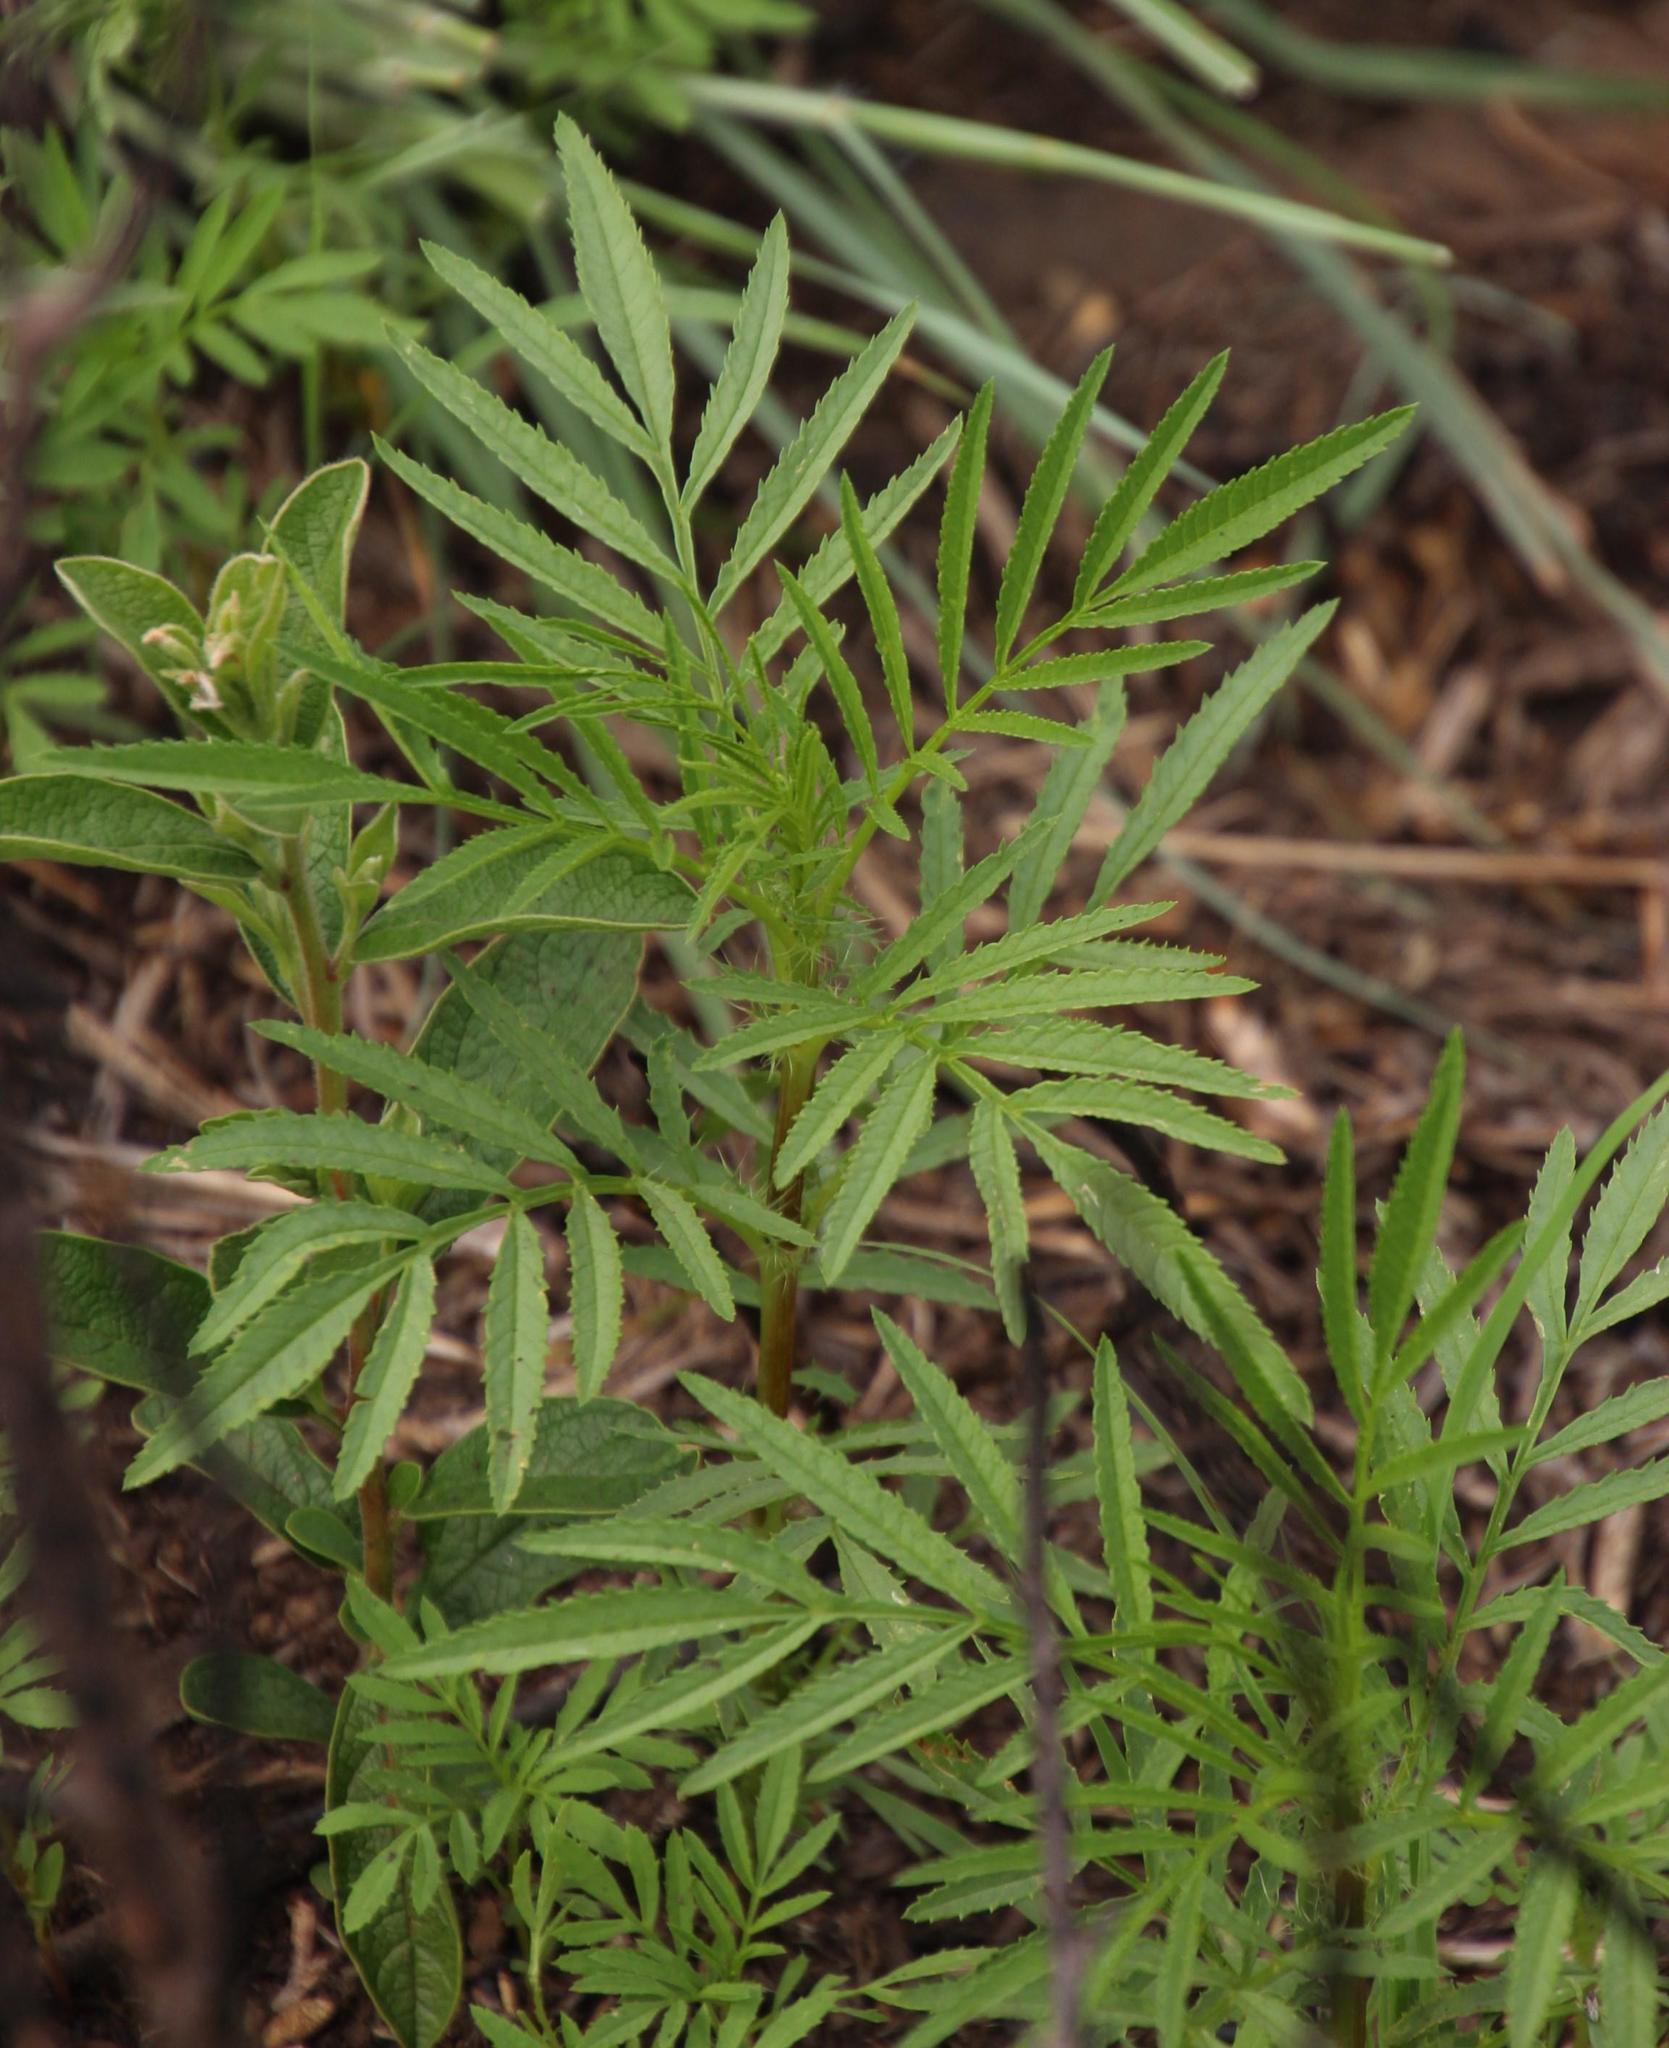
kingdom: Plantae
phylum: Tracheophyta
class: Magnoliopsida
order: Asterales
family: Asteraceae
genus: Tagetes
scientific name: Tagetes minuta
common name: Muster john henry
